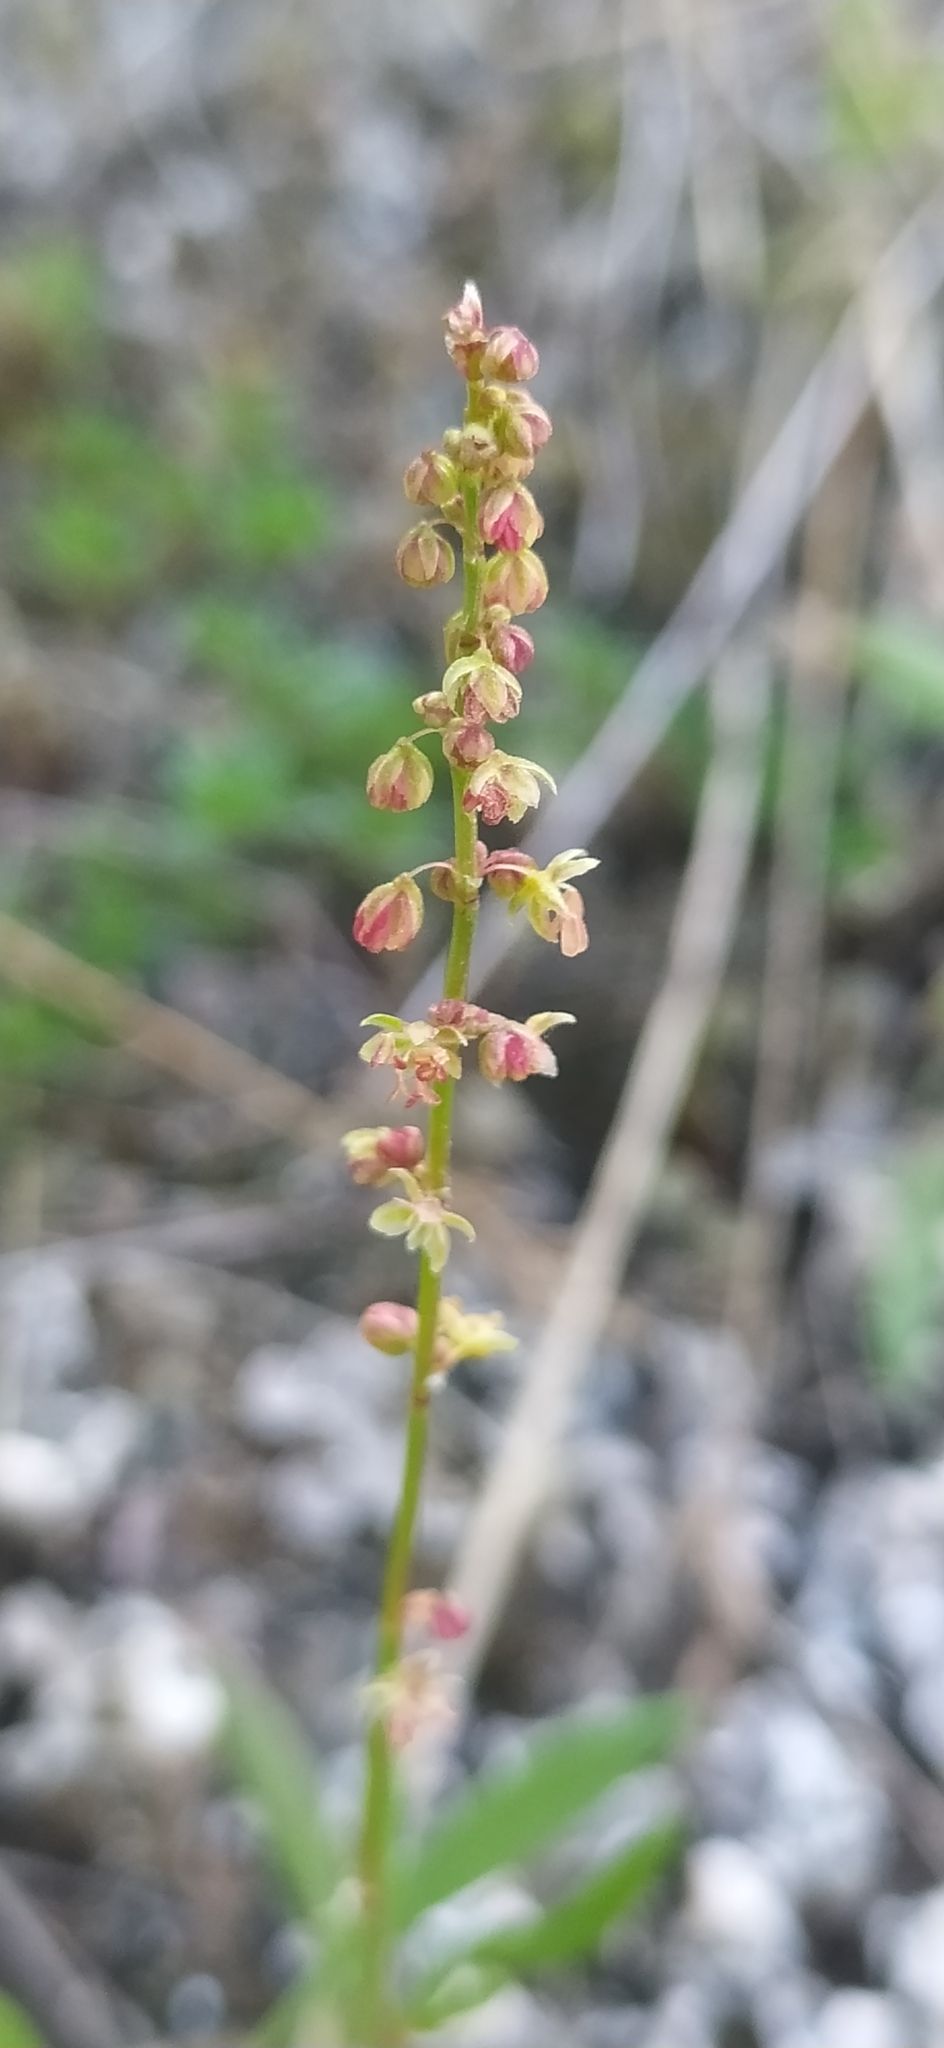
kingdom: Plantae
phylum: Tracheophyta
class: Magnoliopsida
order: Caryophyllales
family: Polygonaceae
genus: Rumex
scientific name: Rumex acetosella
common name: Common sheep sorrel
